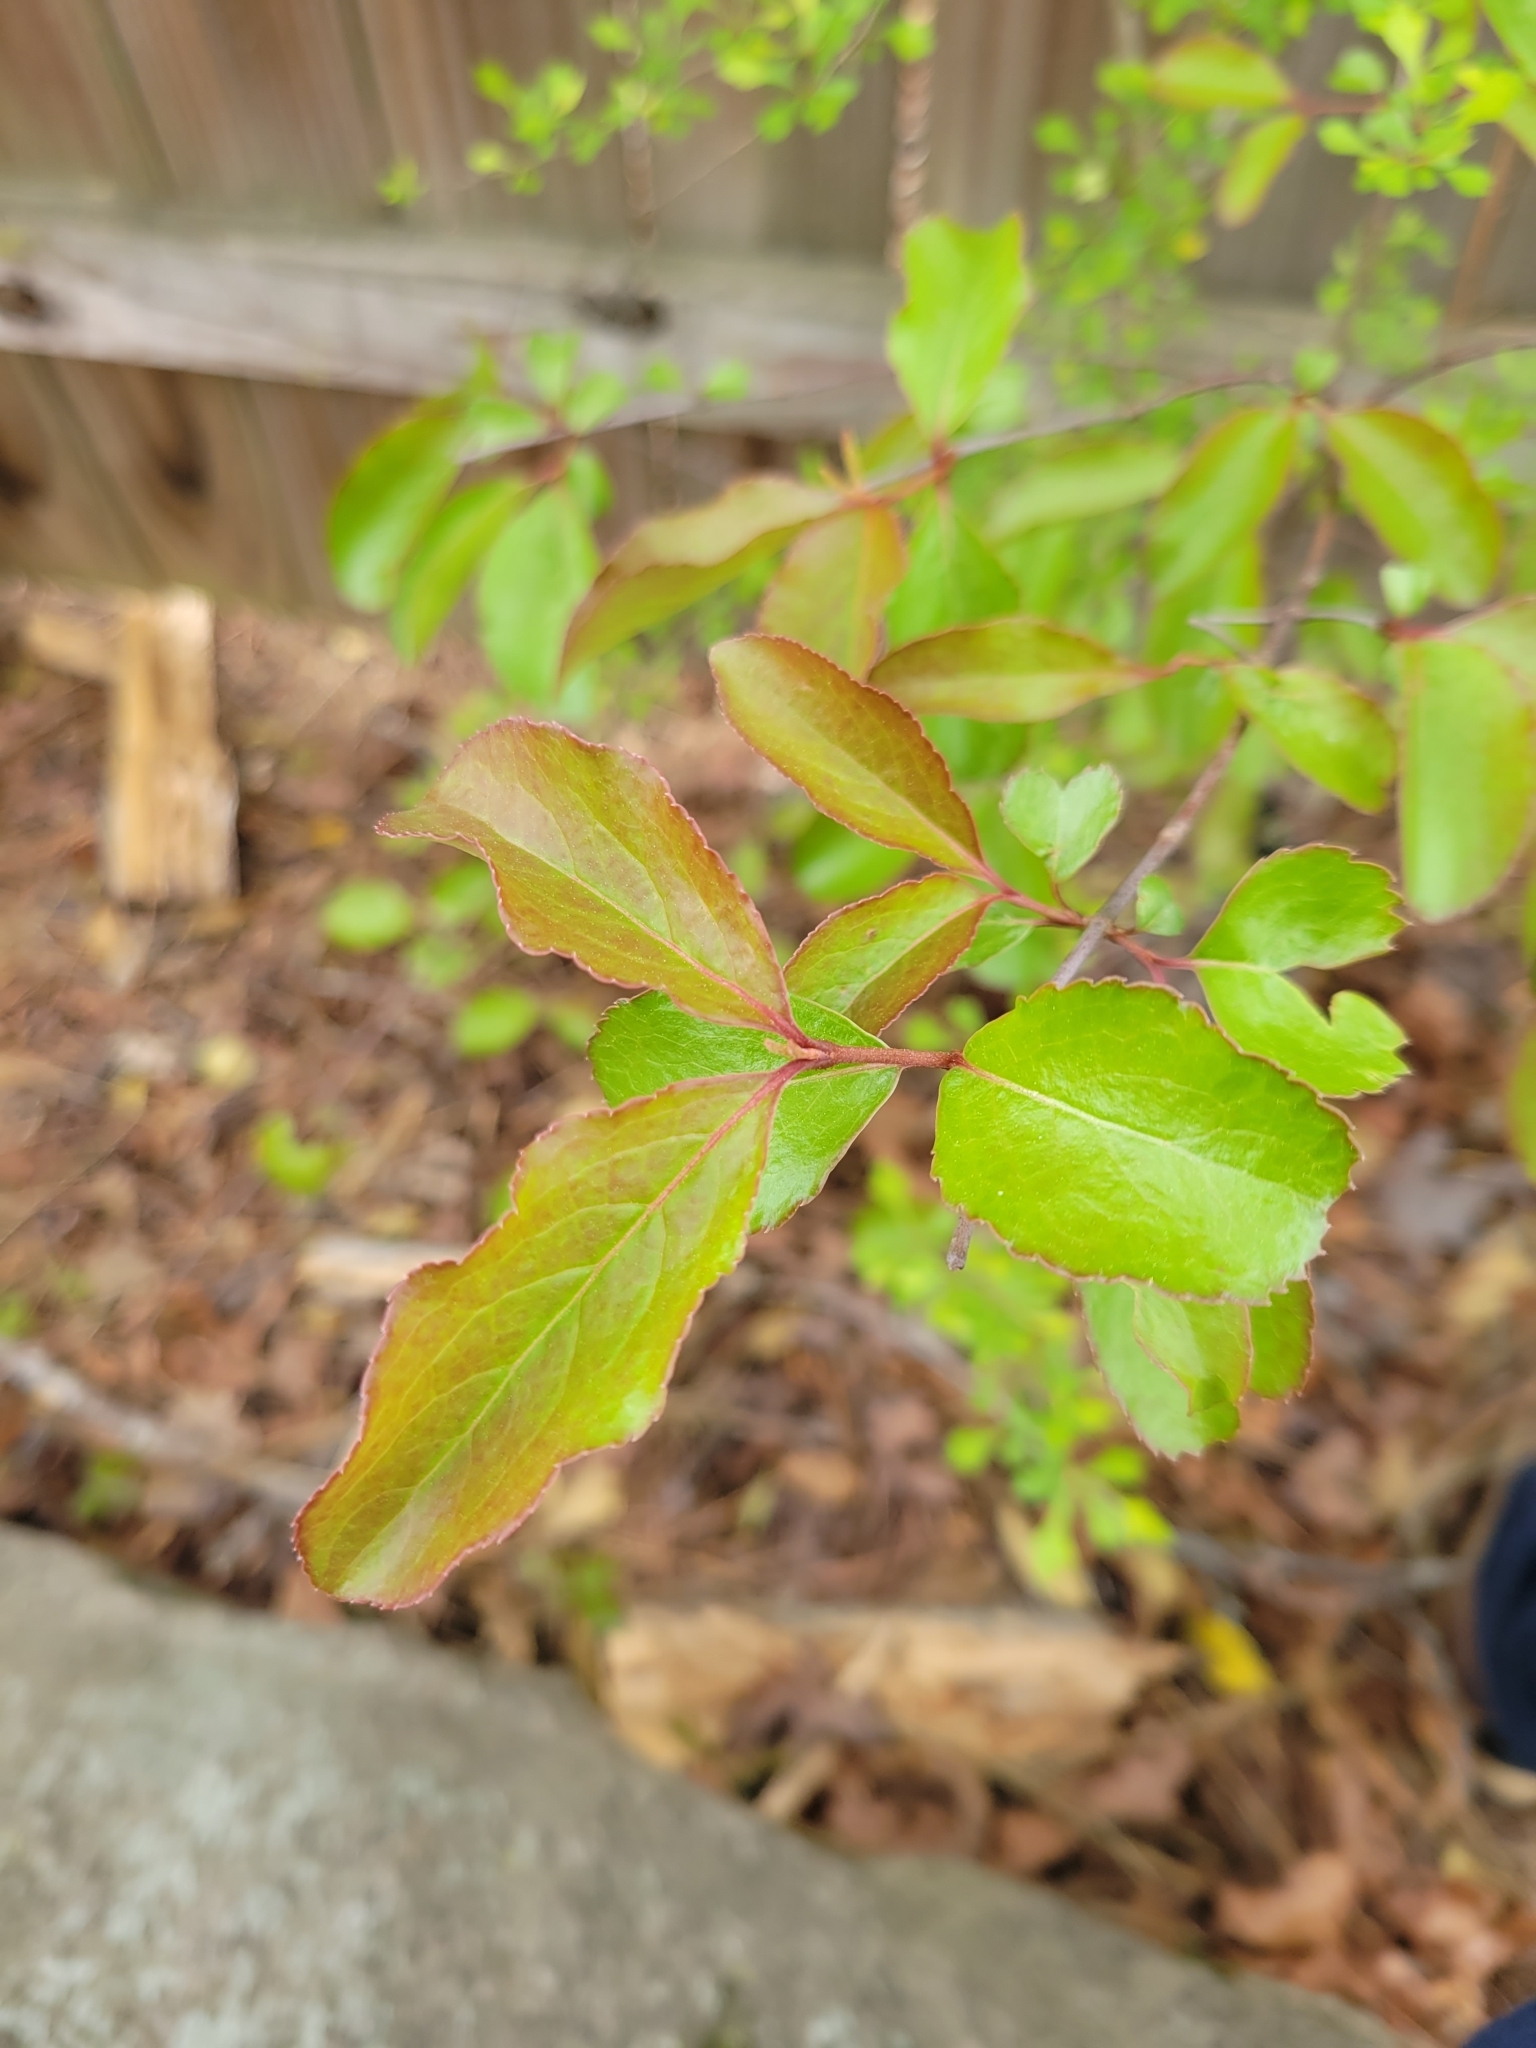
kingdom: Plantae
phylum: Tracheophyta
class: Magnoliopsida
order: Dipsacales
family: Viburnaceae
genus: Viburnum
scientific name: Viburnum prunifolium
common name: Black haw
